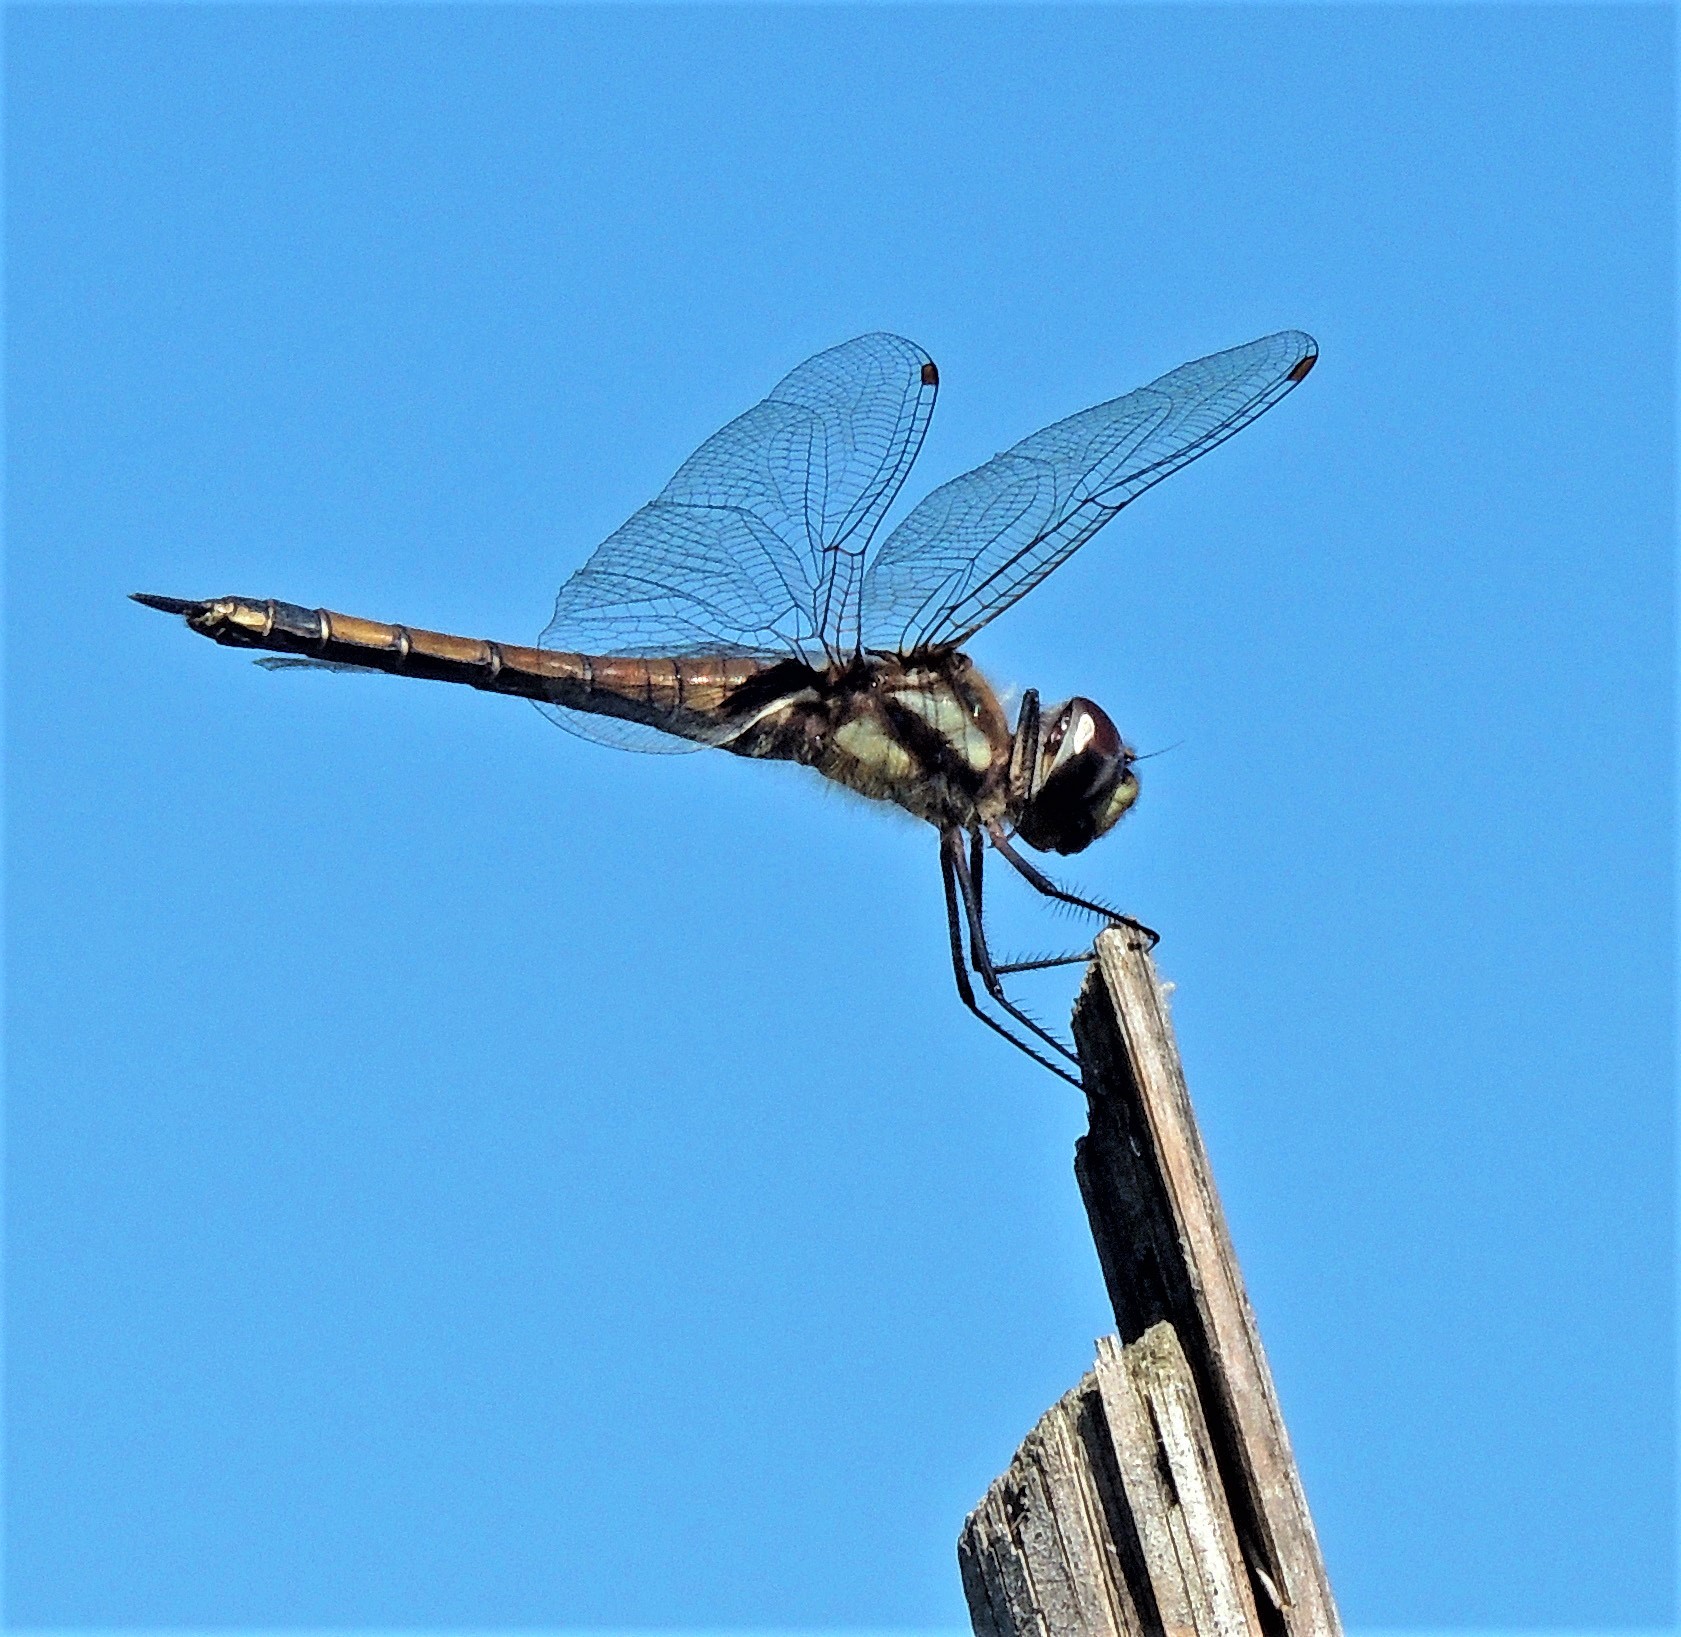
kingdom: Animalia
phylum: Arthropoda
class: Insecta
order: Odonata
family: Libellulidae
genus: Tramea
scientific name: Tramea cophysa
